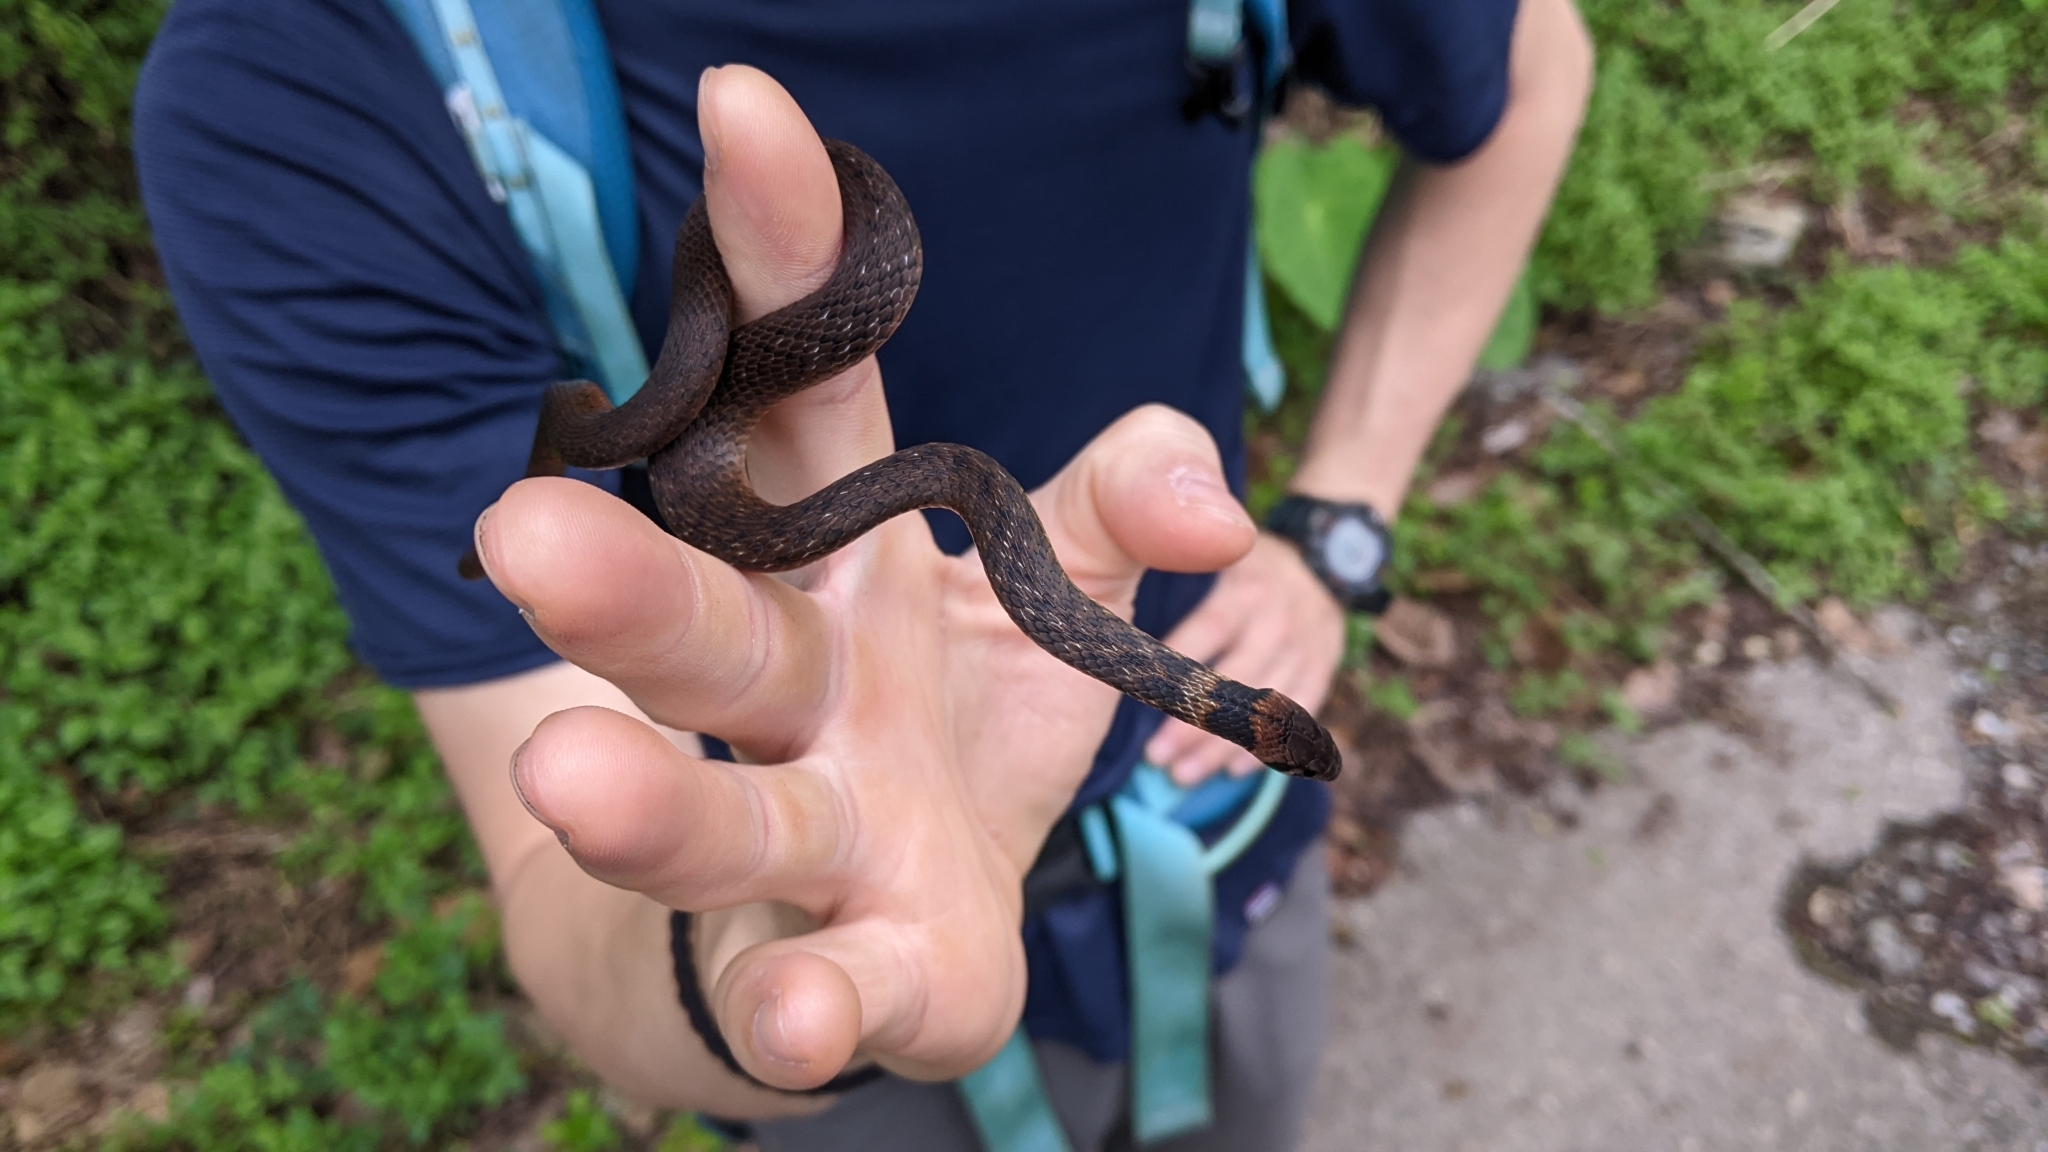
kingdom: Animalia
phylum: Chordata
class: Squamata
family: Colubridae
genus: Rhabdophis
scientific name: Rhabdophis swinhonis
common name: Taiwan keelback
